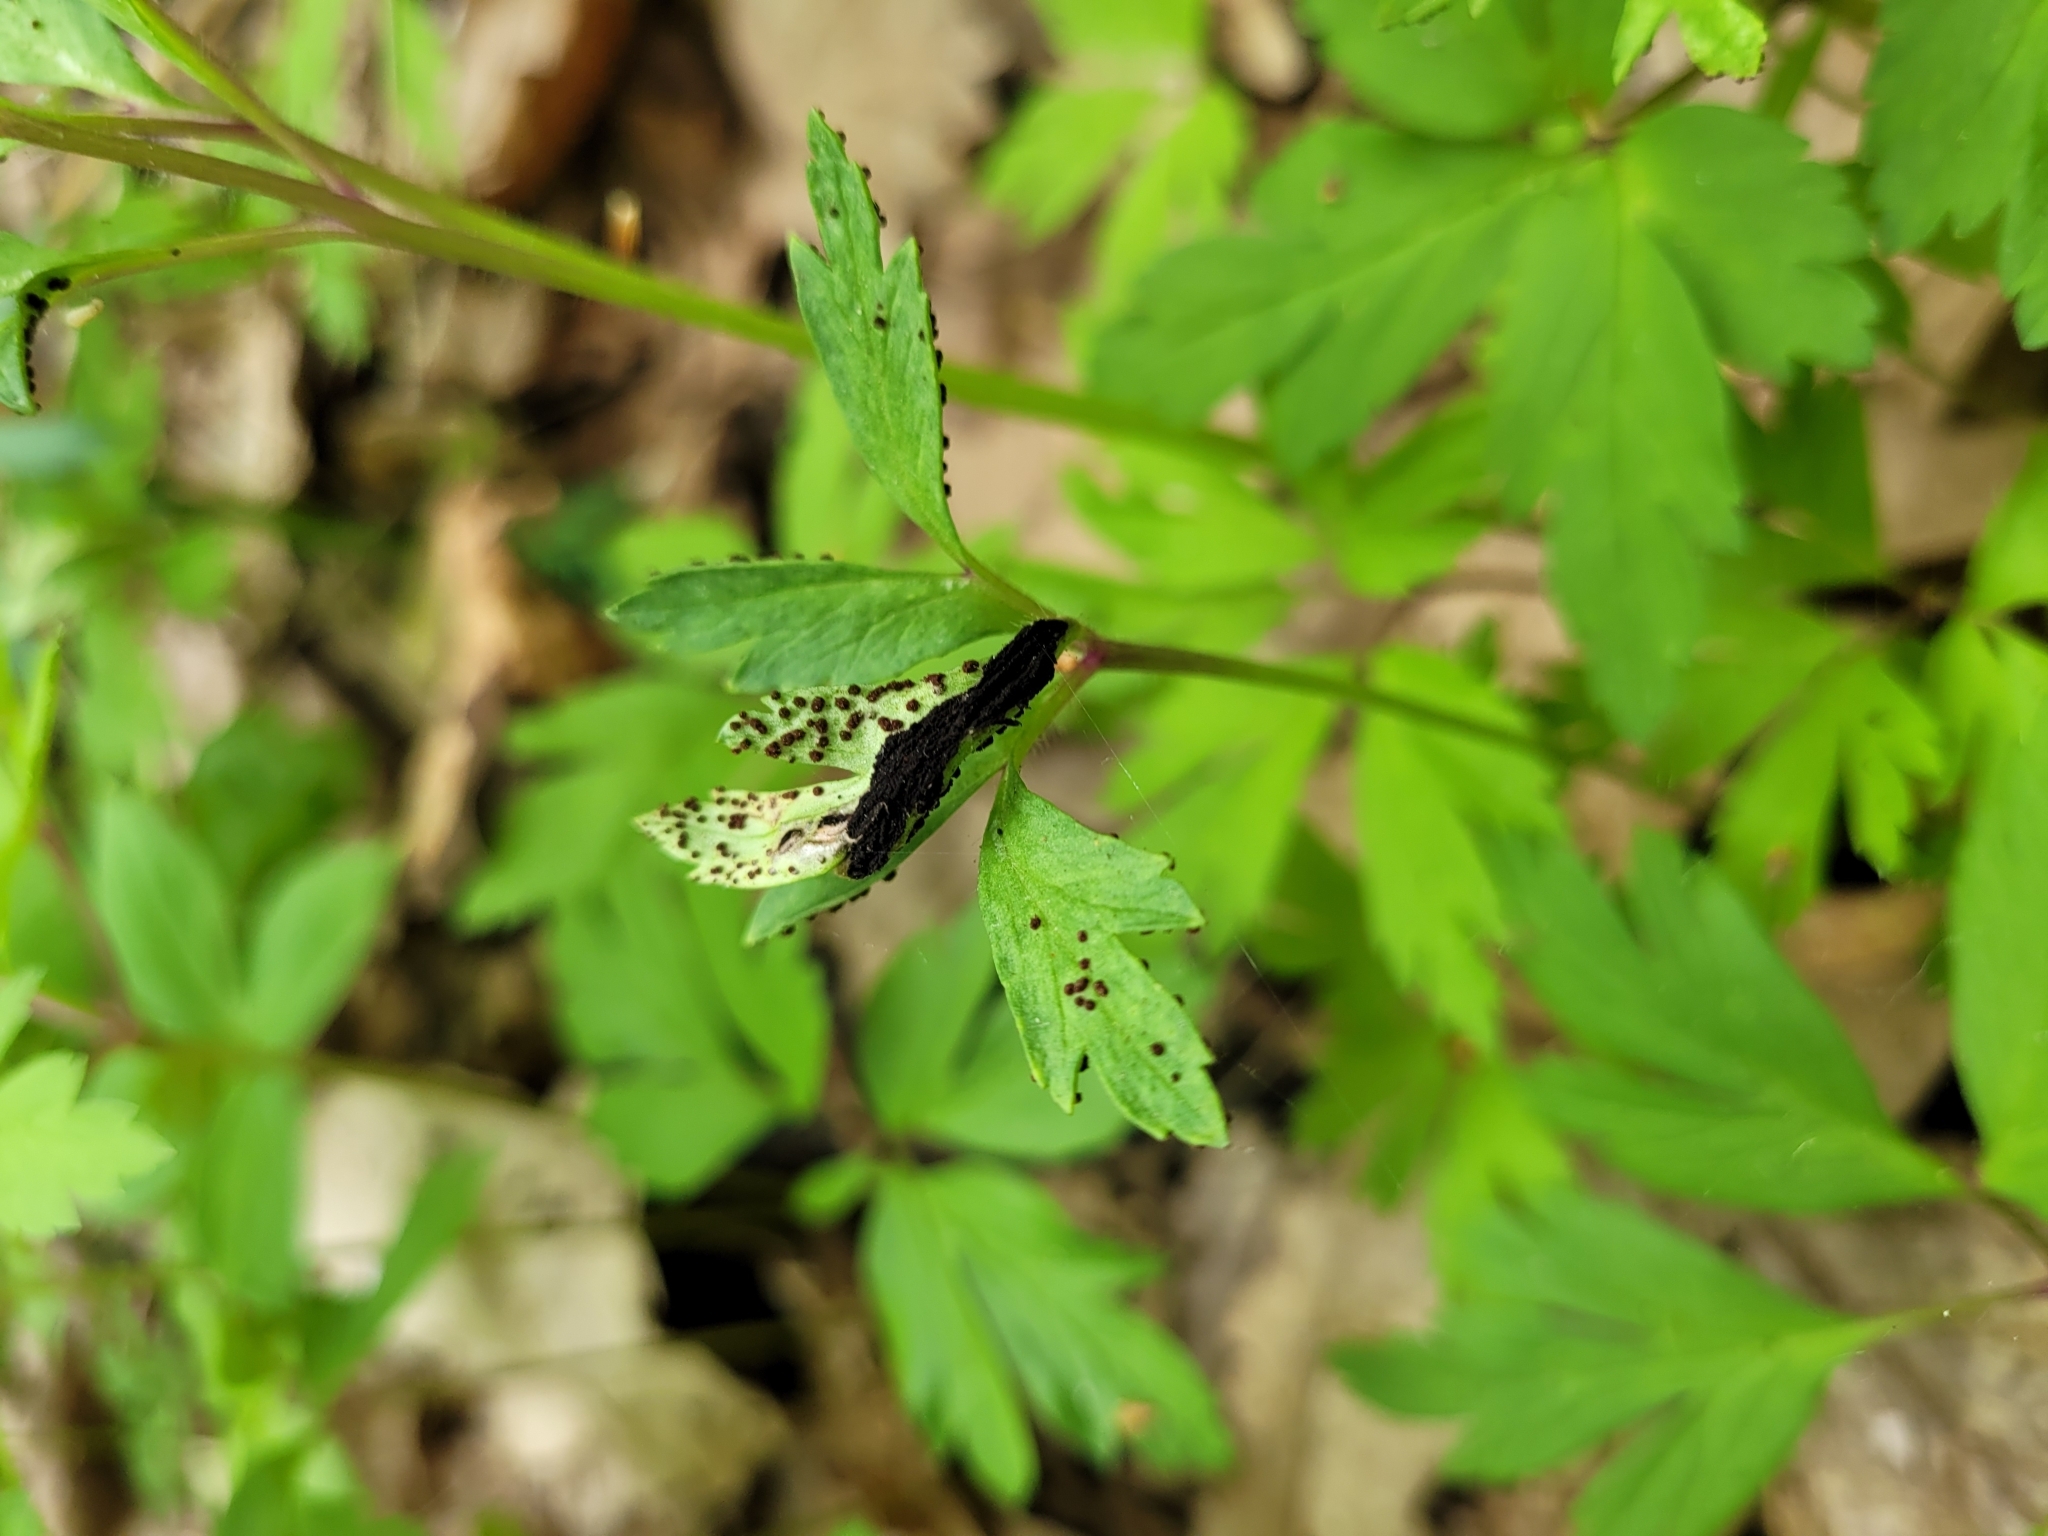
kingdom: Fungi
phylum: Basidiomycota
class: Pucciniomycetes
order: Pucciniales
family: Tranzscheliaceae
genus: Tranzschelia
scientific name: Tranzschelia anemones
